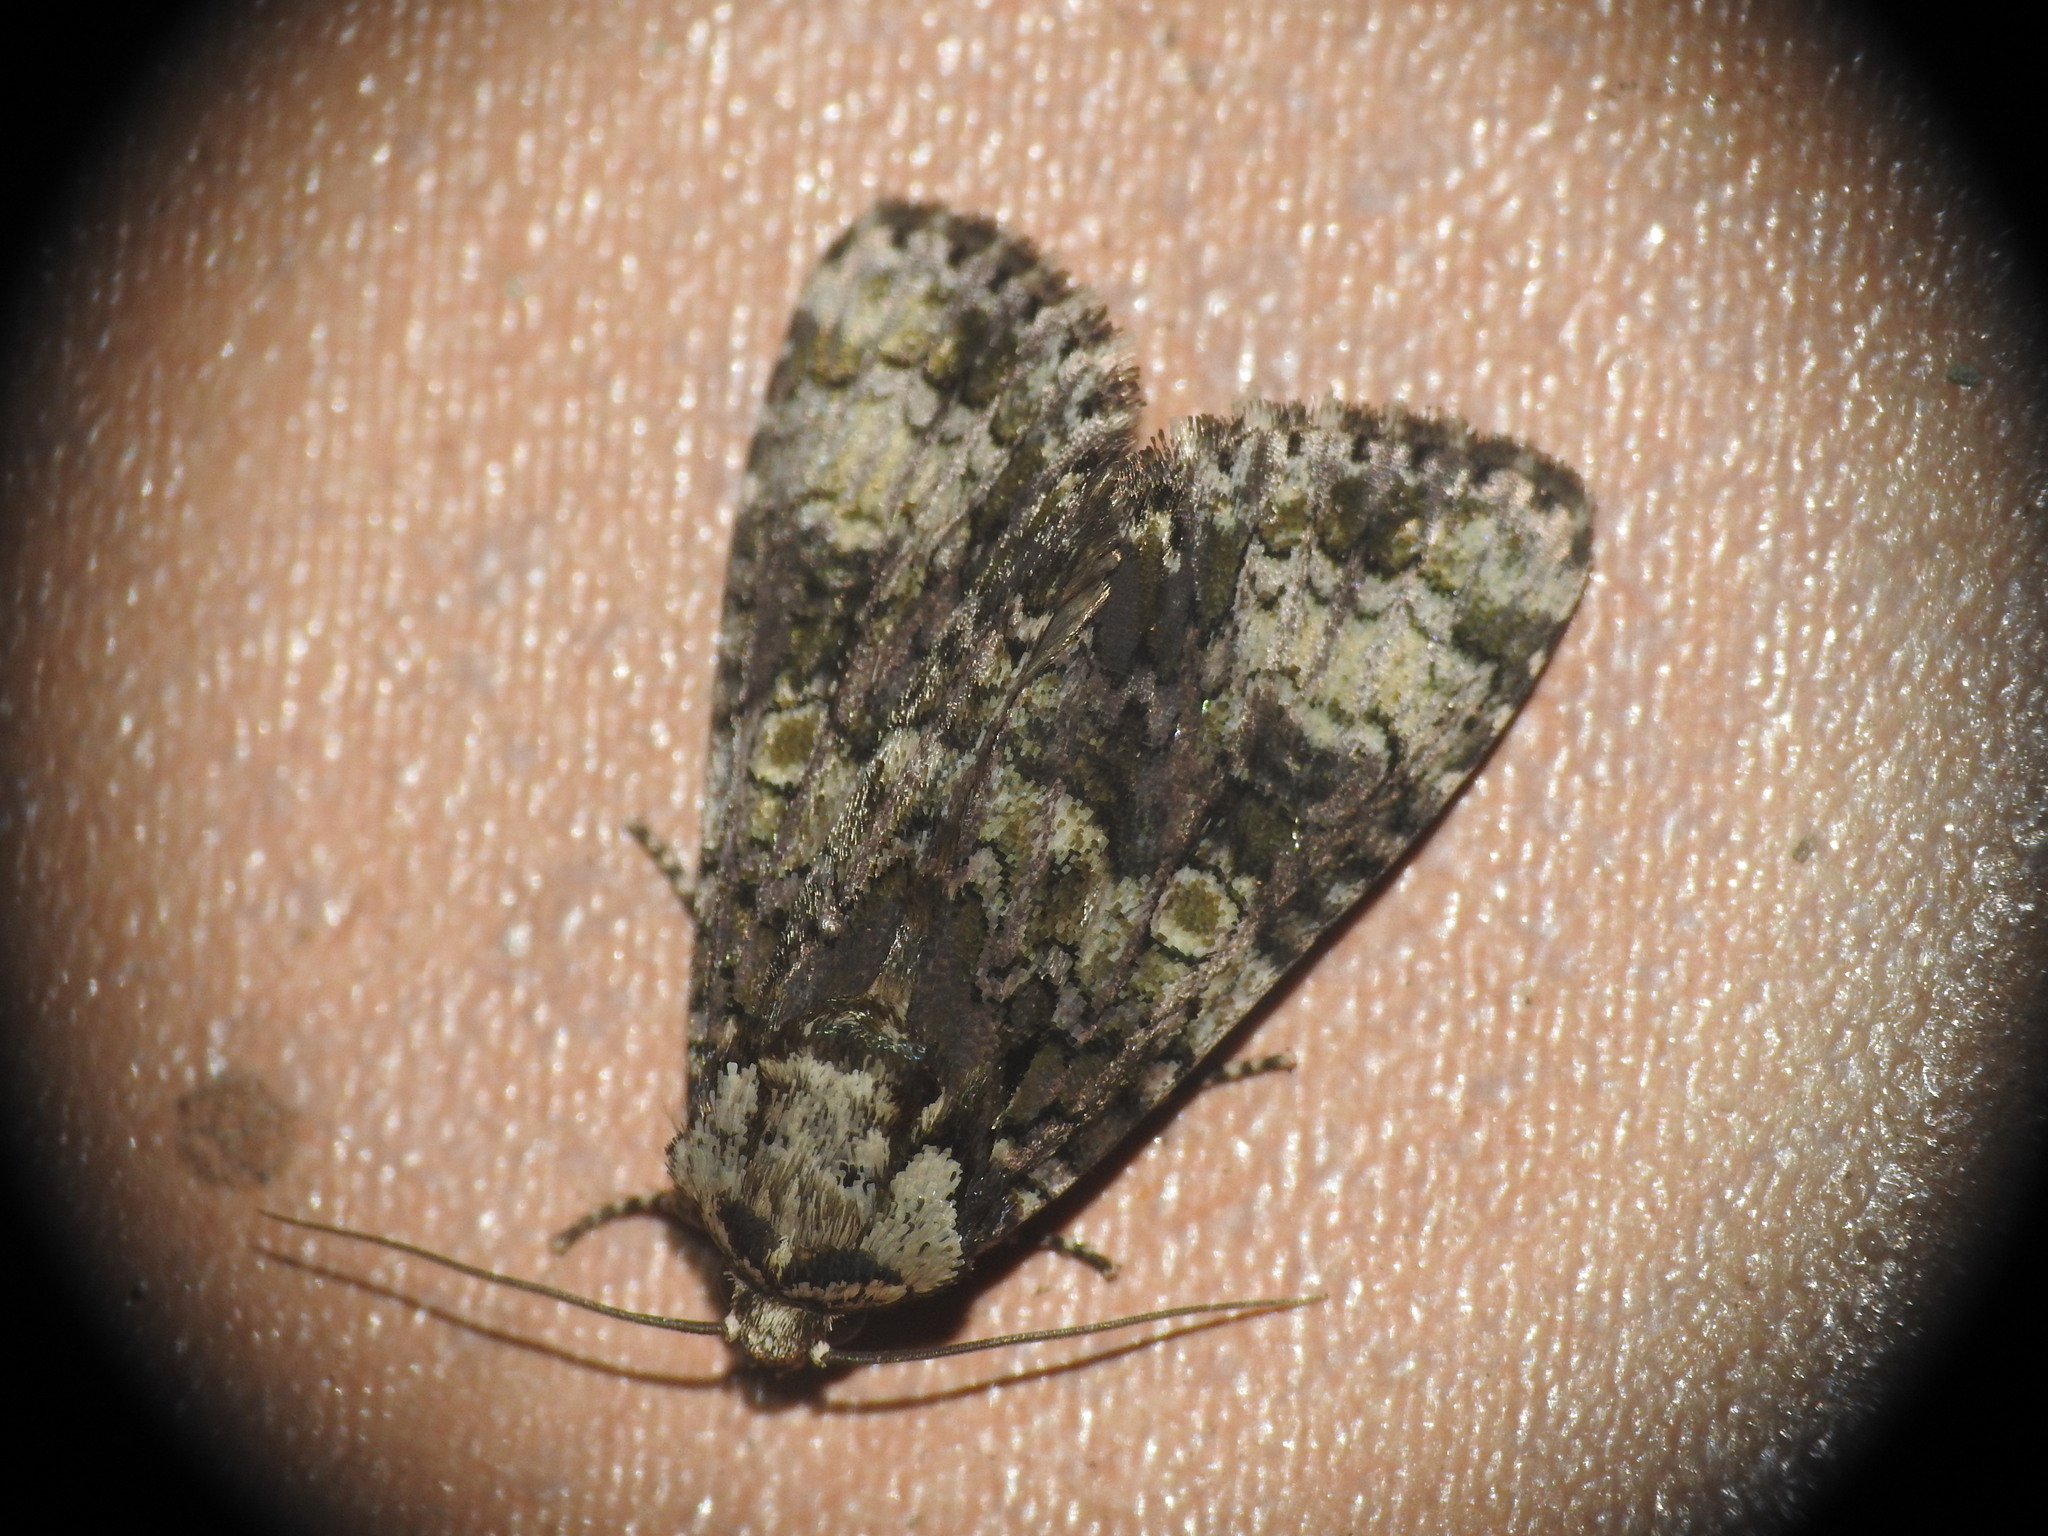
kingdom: Animalia
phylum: Arthropoda
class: Insecta
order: Lepidoptera
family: Noctuidae
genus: Craniophora
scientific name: Craniophora ligustri
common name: Coronet
